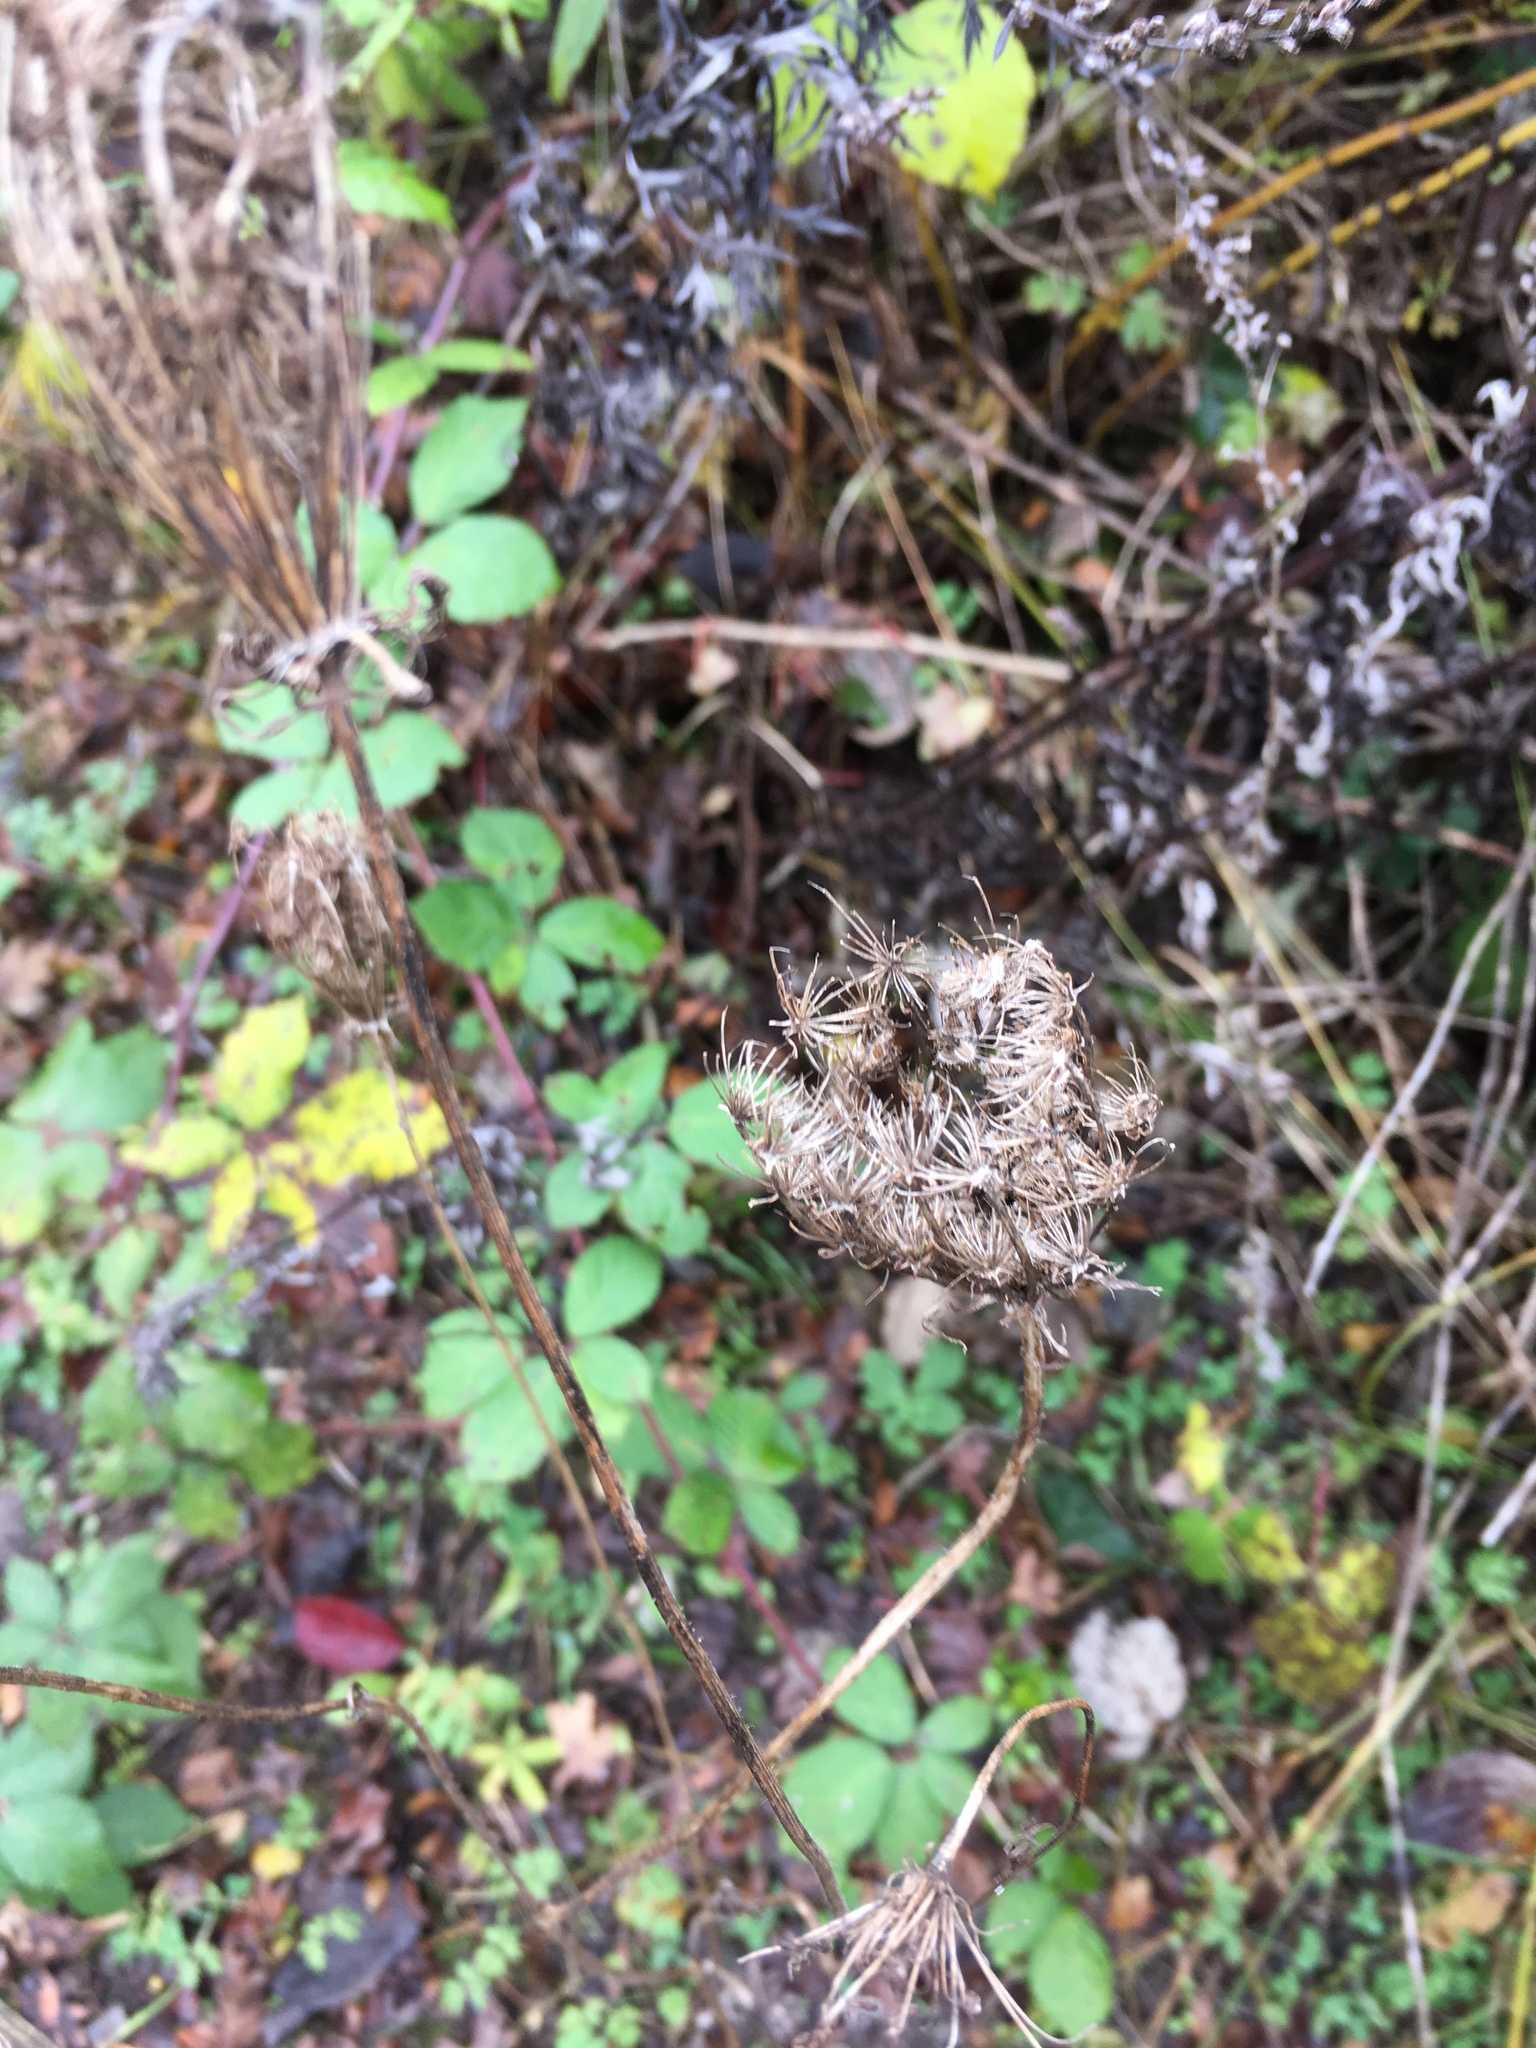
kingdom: Plantae
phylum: Tracheophyta
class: Magnoliopsida
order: Apiales
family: Apiaceae
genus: Daucus
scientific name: Daucus carota
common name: Wild carrot
